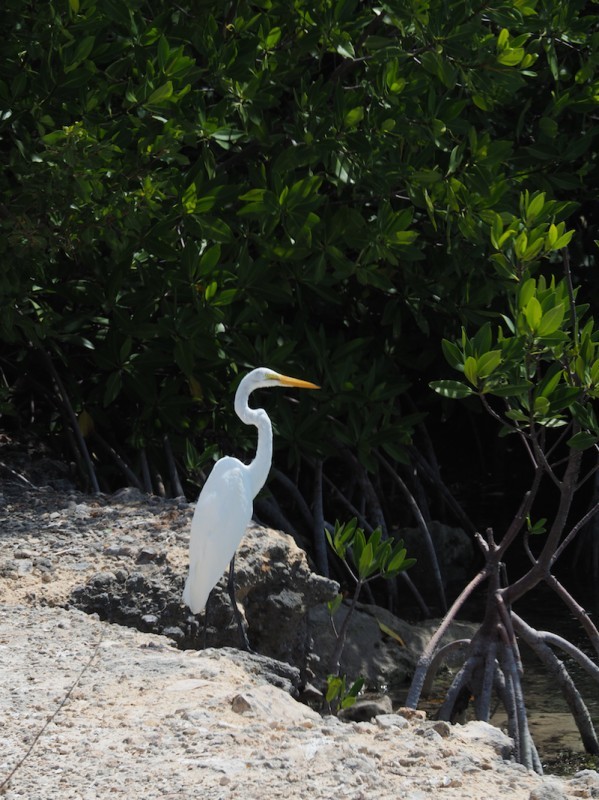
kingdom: Animalia
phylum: Chordata
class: Aves
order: Pelecaniformes
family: Ardeidae
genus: Ardea
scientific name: Ardea alba
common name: Great egret
